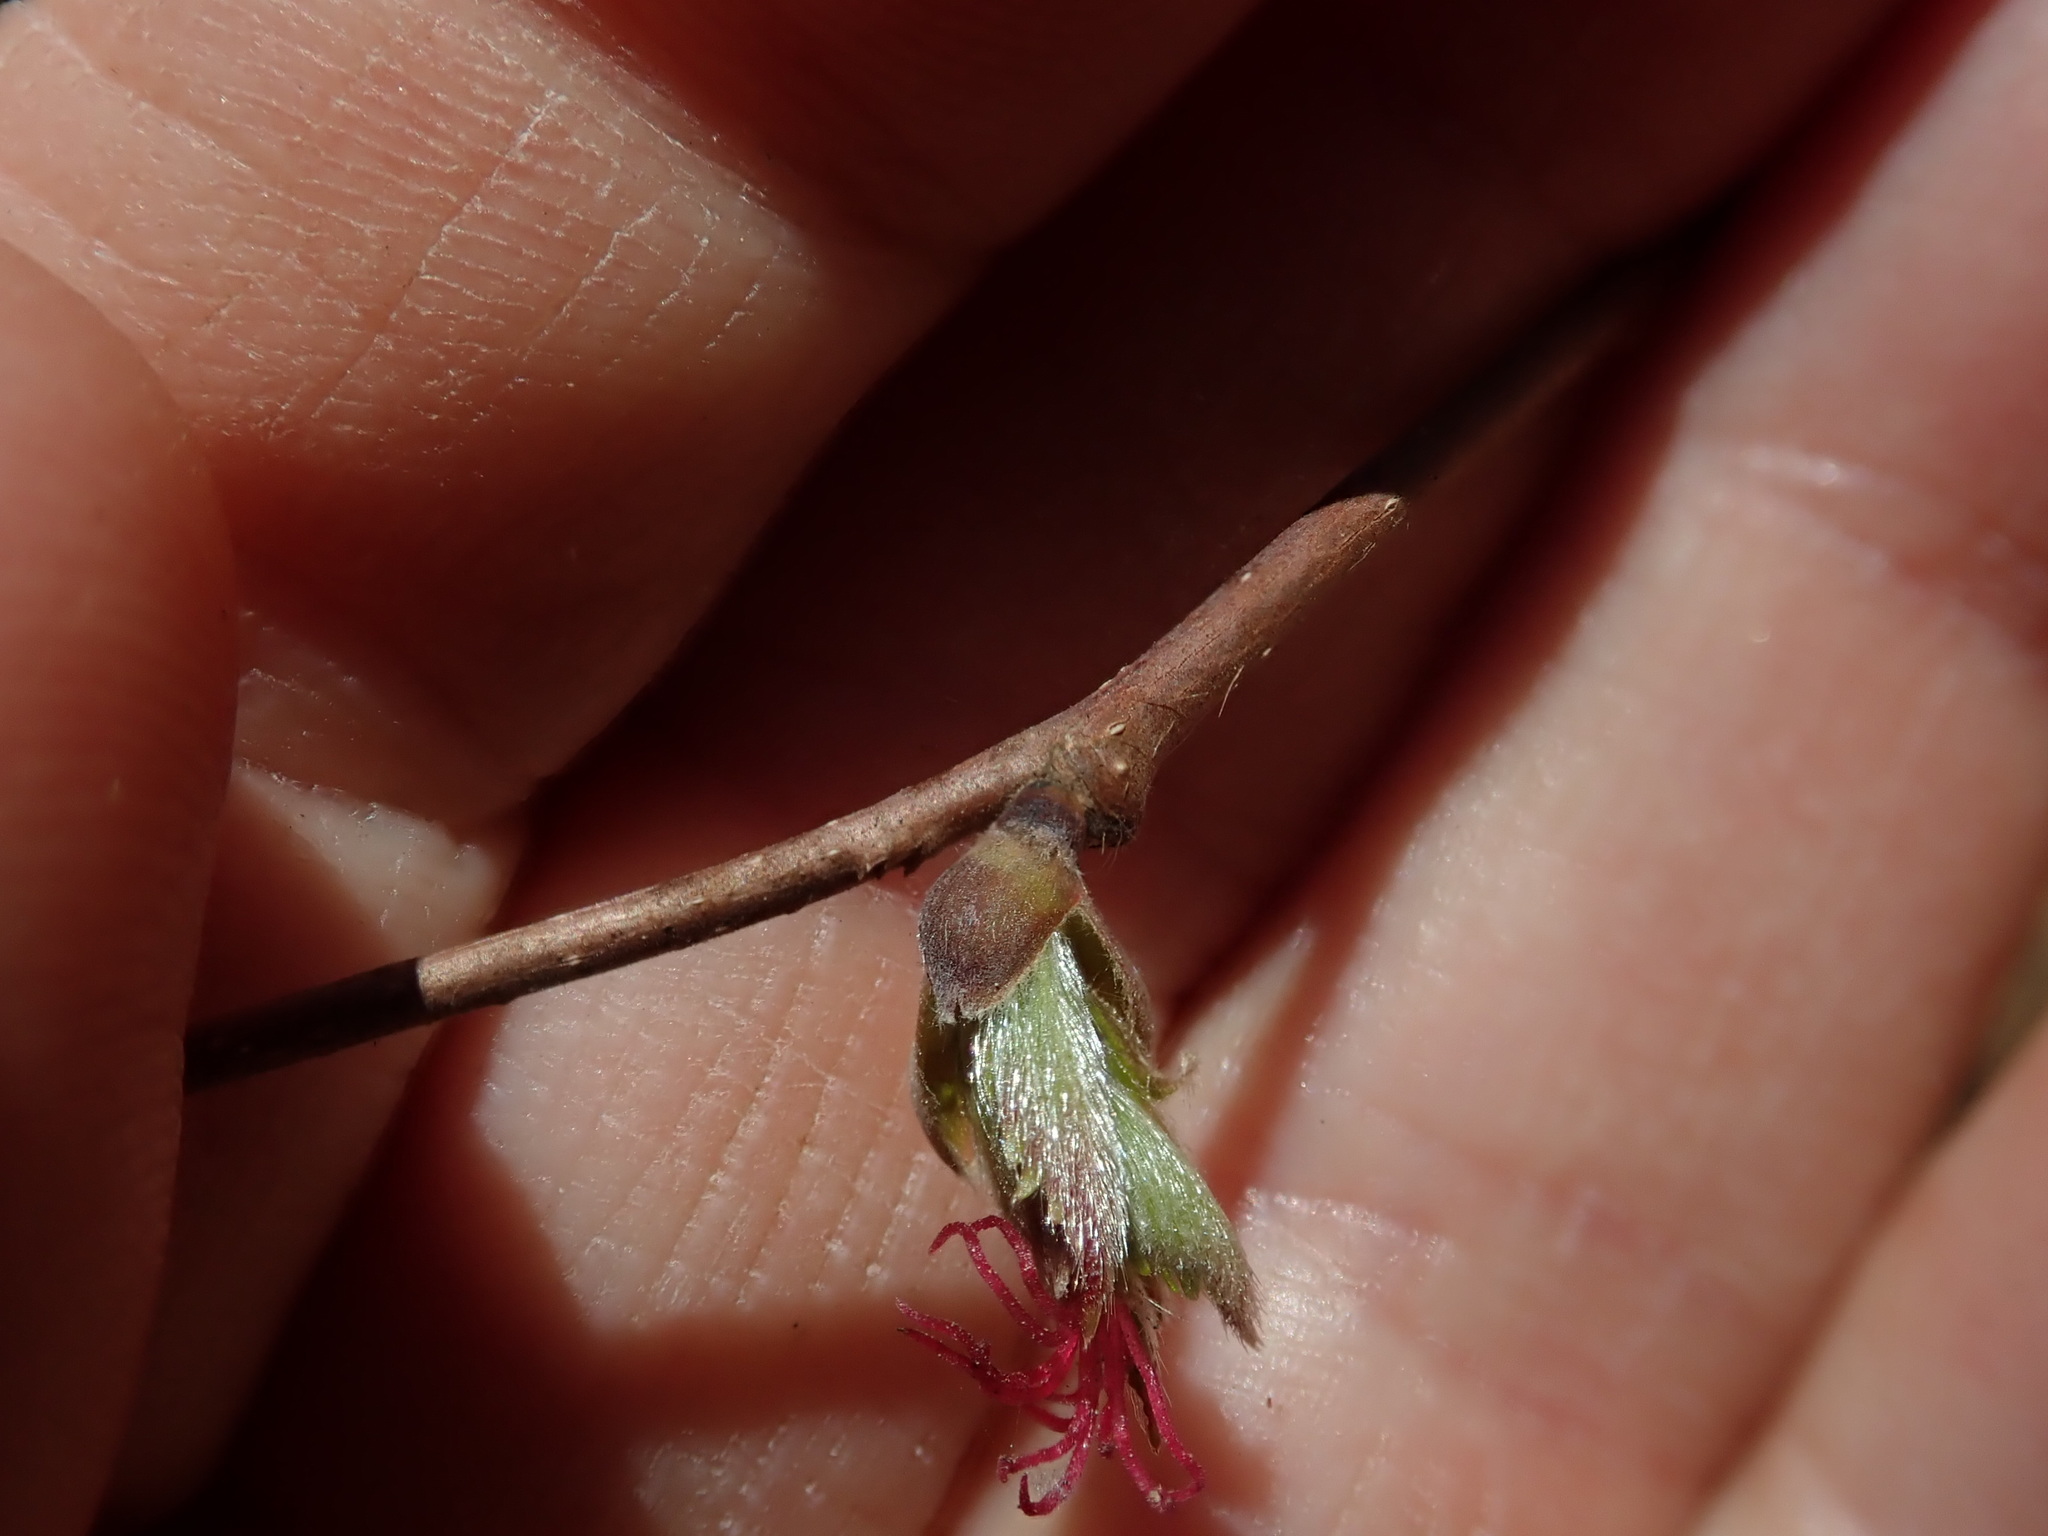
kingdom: Plantae
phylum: Tracheophyta
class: Magnoliopsida
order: Fagales
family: Betulaceae
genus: Corylus
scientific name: Corylus cornuta
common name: Beaked hazel
